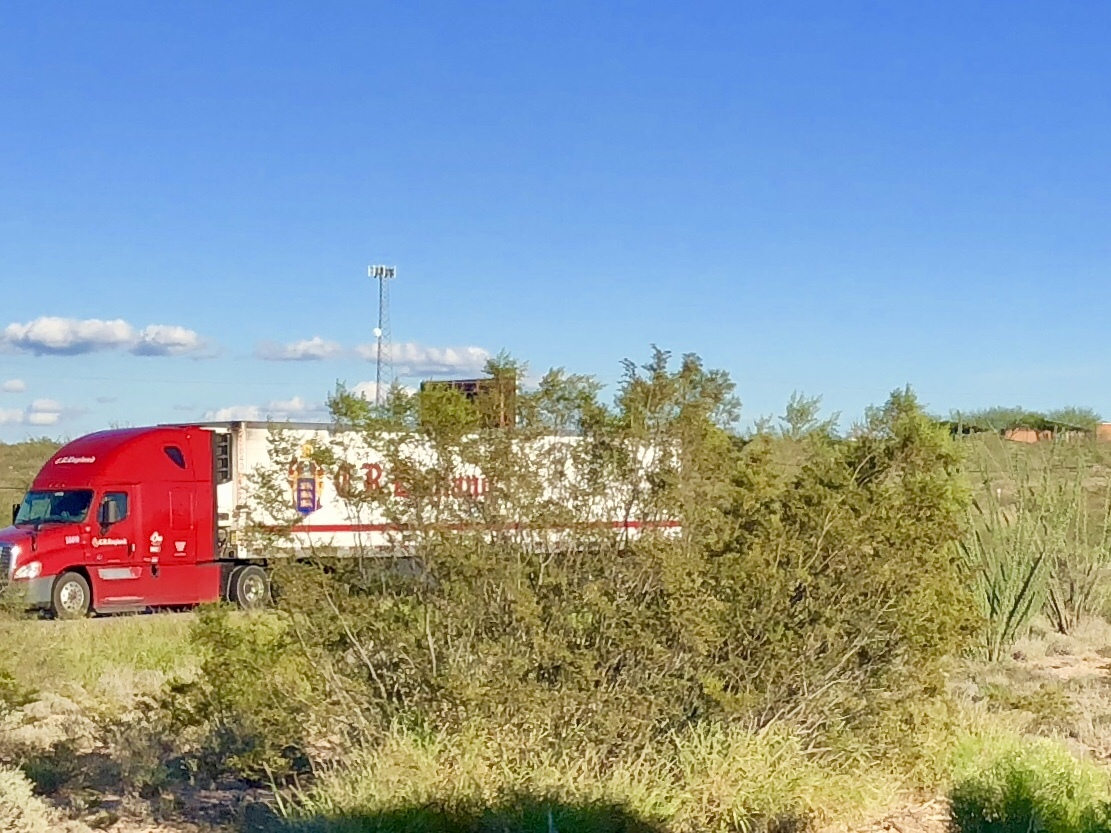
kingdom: Plantae
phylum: Tracheophyta
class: Magnoliopsida
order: Zygophyllales
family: Zygophyllaceae
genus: Larrea
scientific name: Larrea tridentata
